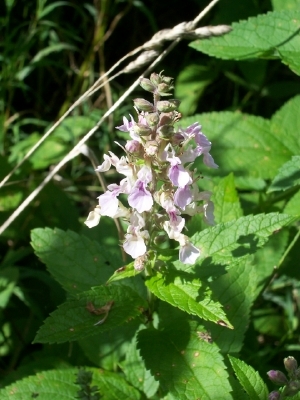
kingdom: Plantae
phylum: Tracheophyta
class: Magnoliopsida
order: Lamiales
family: Lamiaceae
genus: Teucrium
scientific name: Teucrium canadense
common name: American germander
